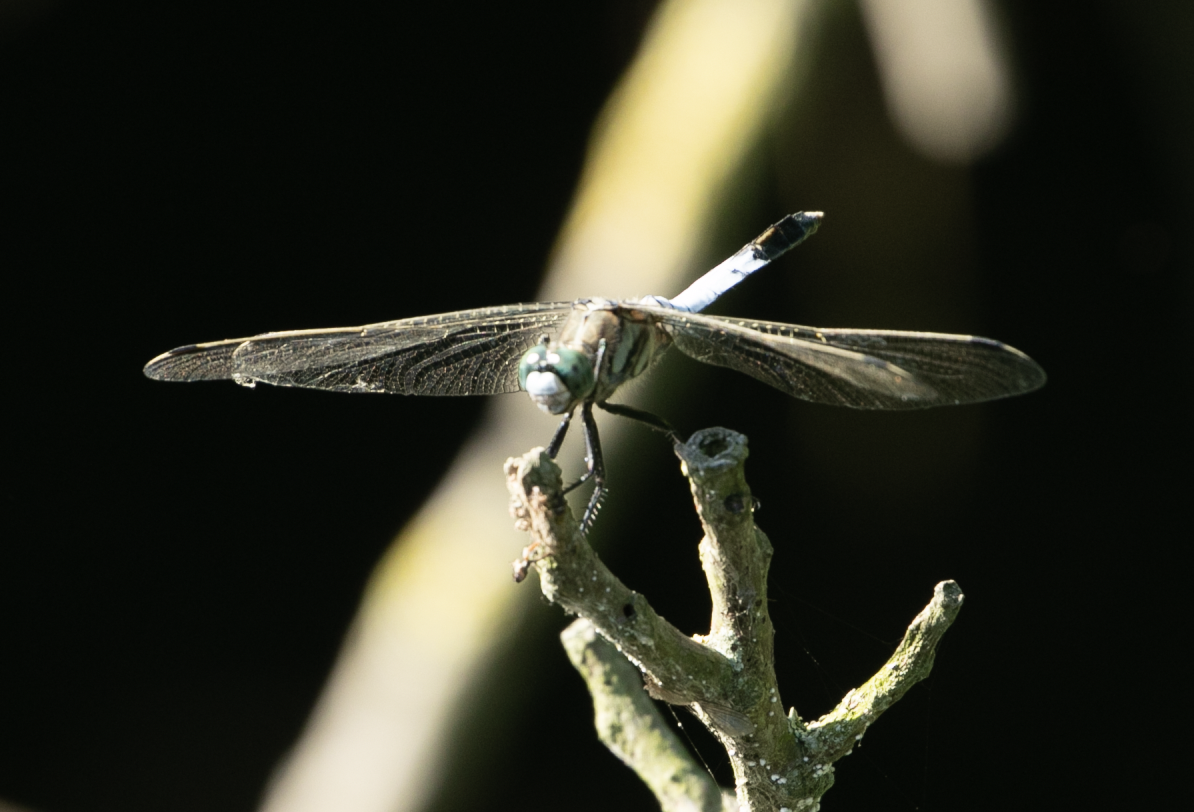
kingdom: Animalia
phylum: Arthropoda
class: Insecta
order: Odonata
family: Libellulidae
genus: Orthetrum
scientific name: Orthetrum albistylum
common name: White-tailed skimmer
